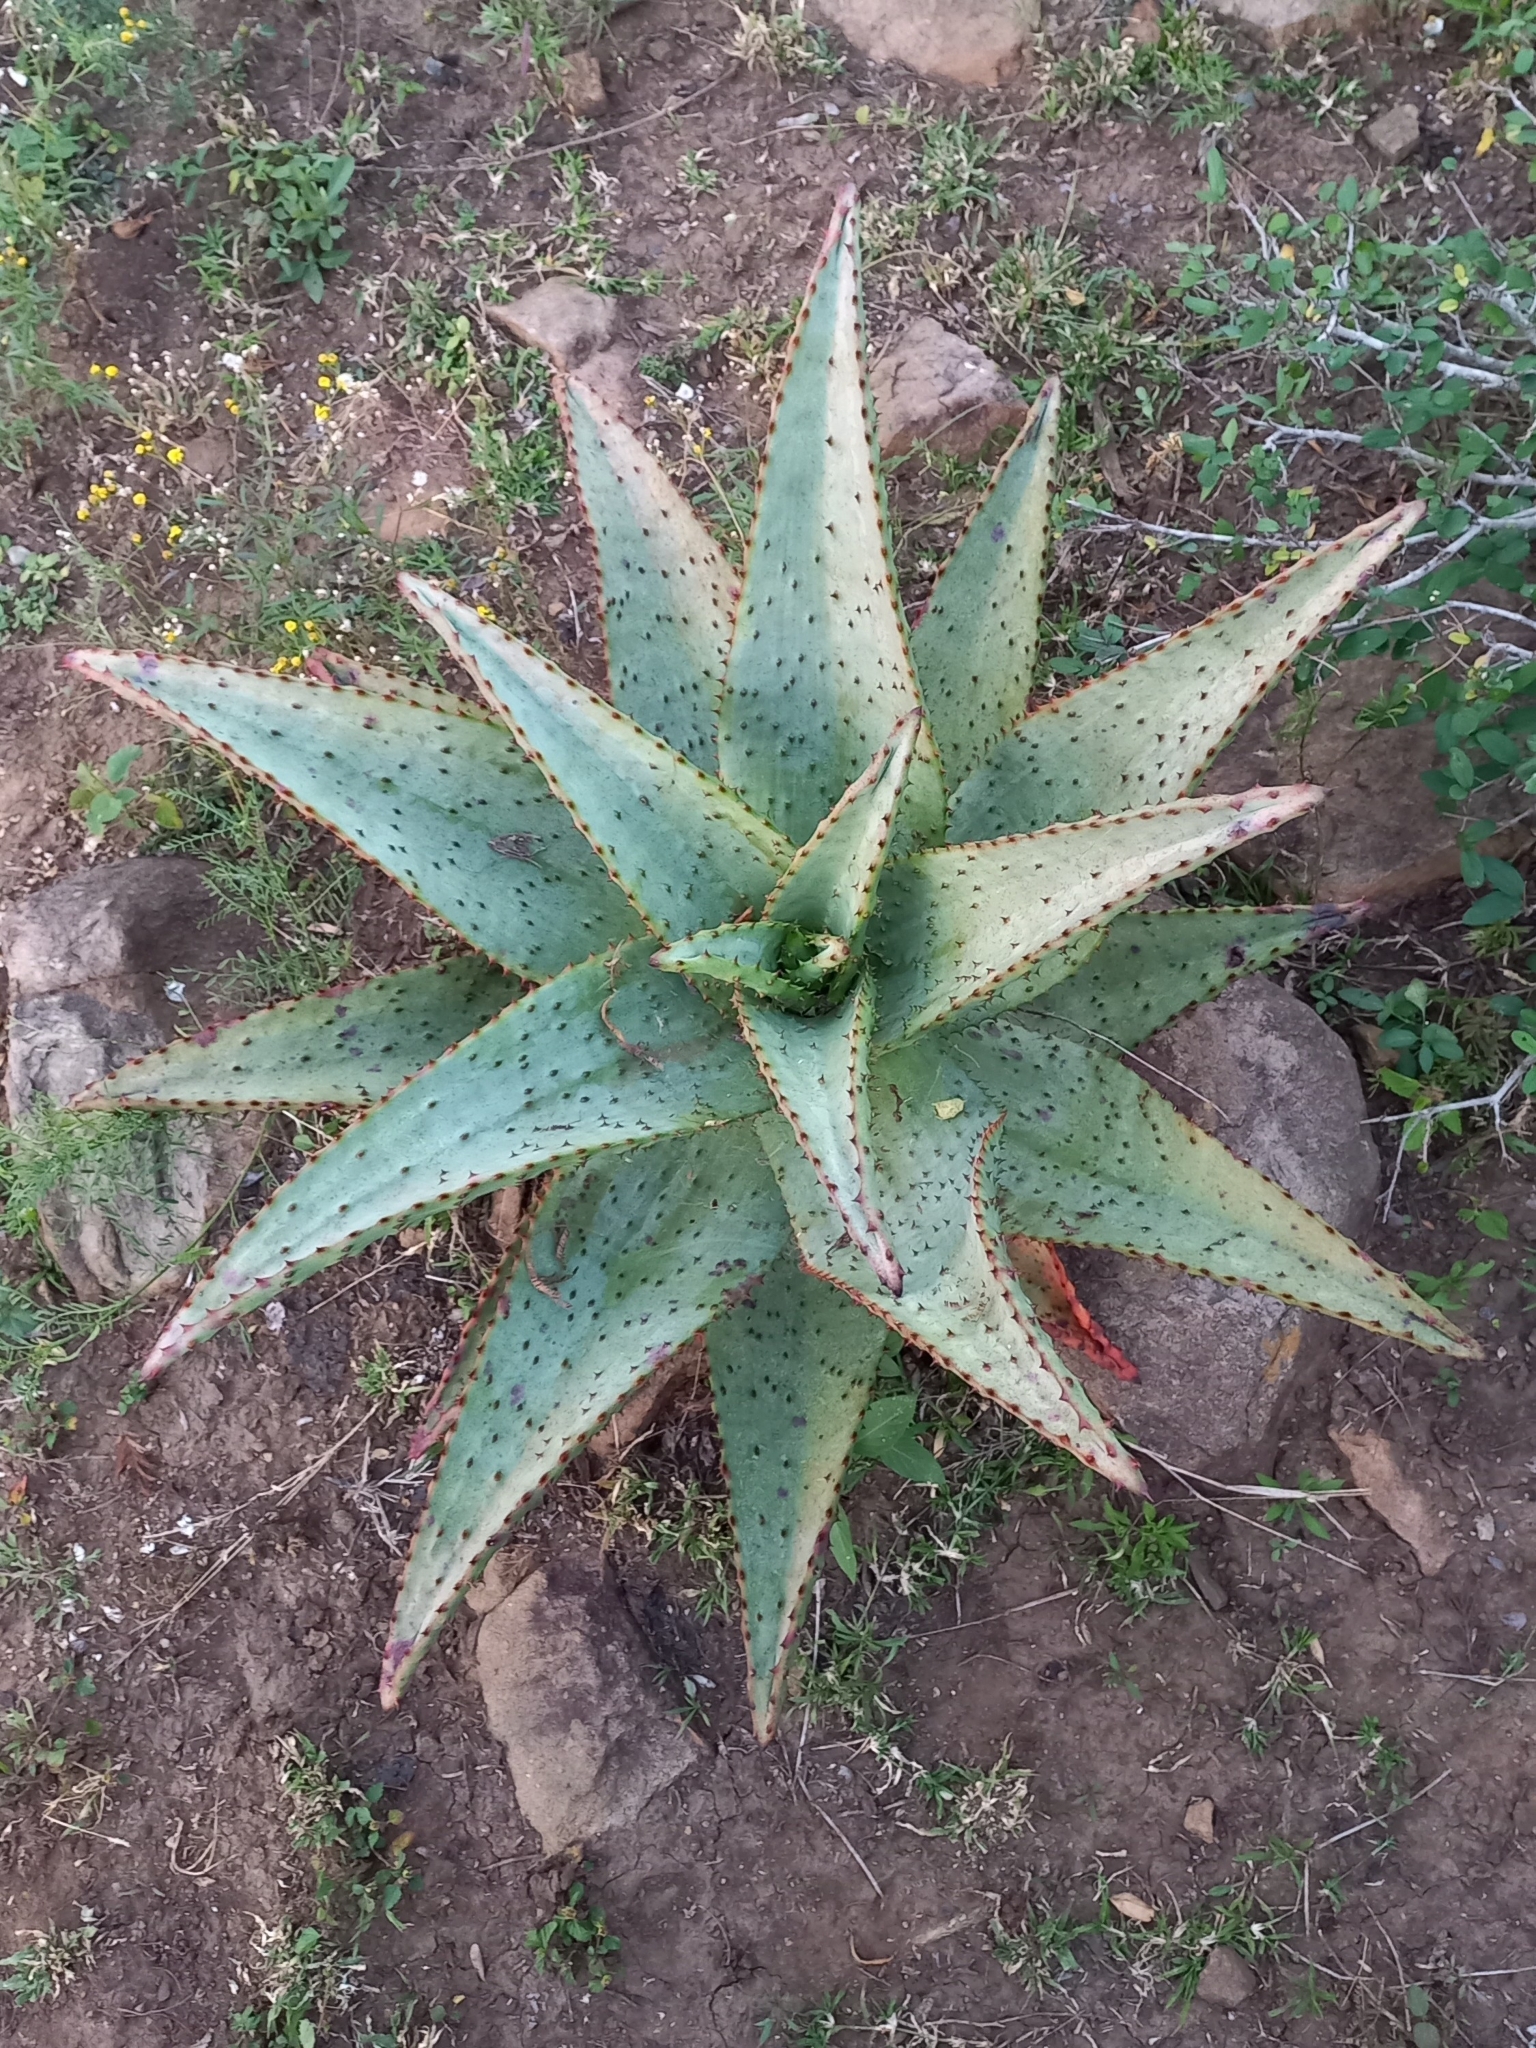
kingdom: Plantae
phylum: Tracheophyta
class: Liliopsida
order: Asparagales
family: Asphodelaceae
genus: Aloe
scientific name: Aloe marlothii
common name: Flat-flowered aloe
